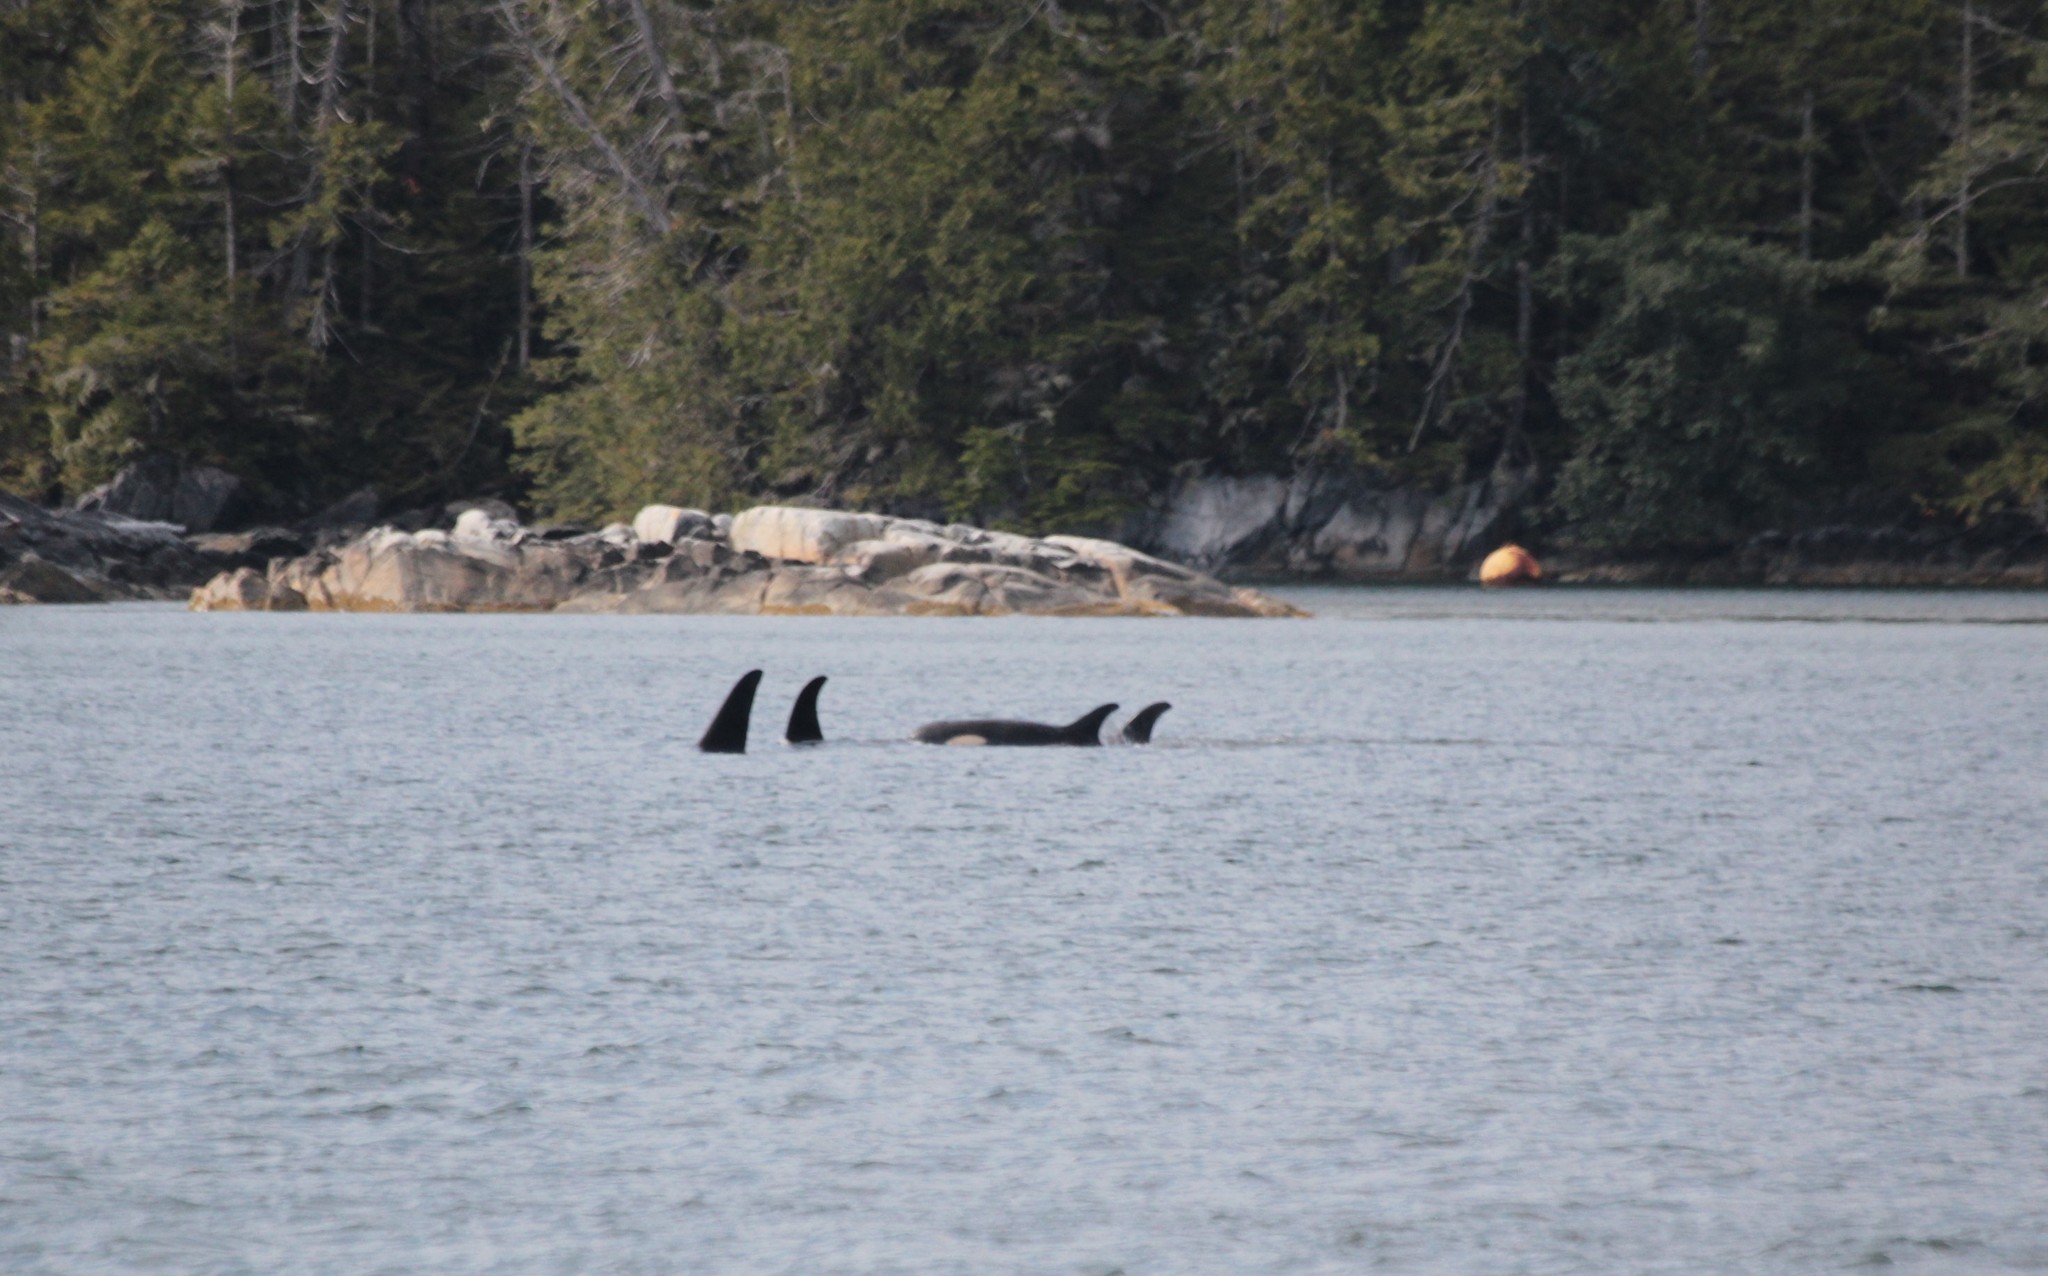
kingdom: Animalia
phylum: Chordata
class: Mammalia
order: Cetacea
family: Delphinidae
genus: Orcinus
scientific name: Orcinus orca
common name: Killer whale
